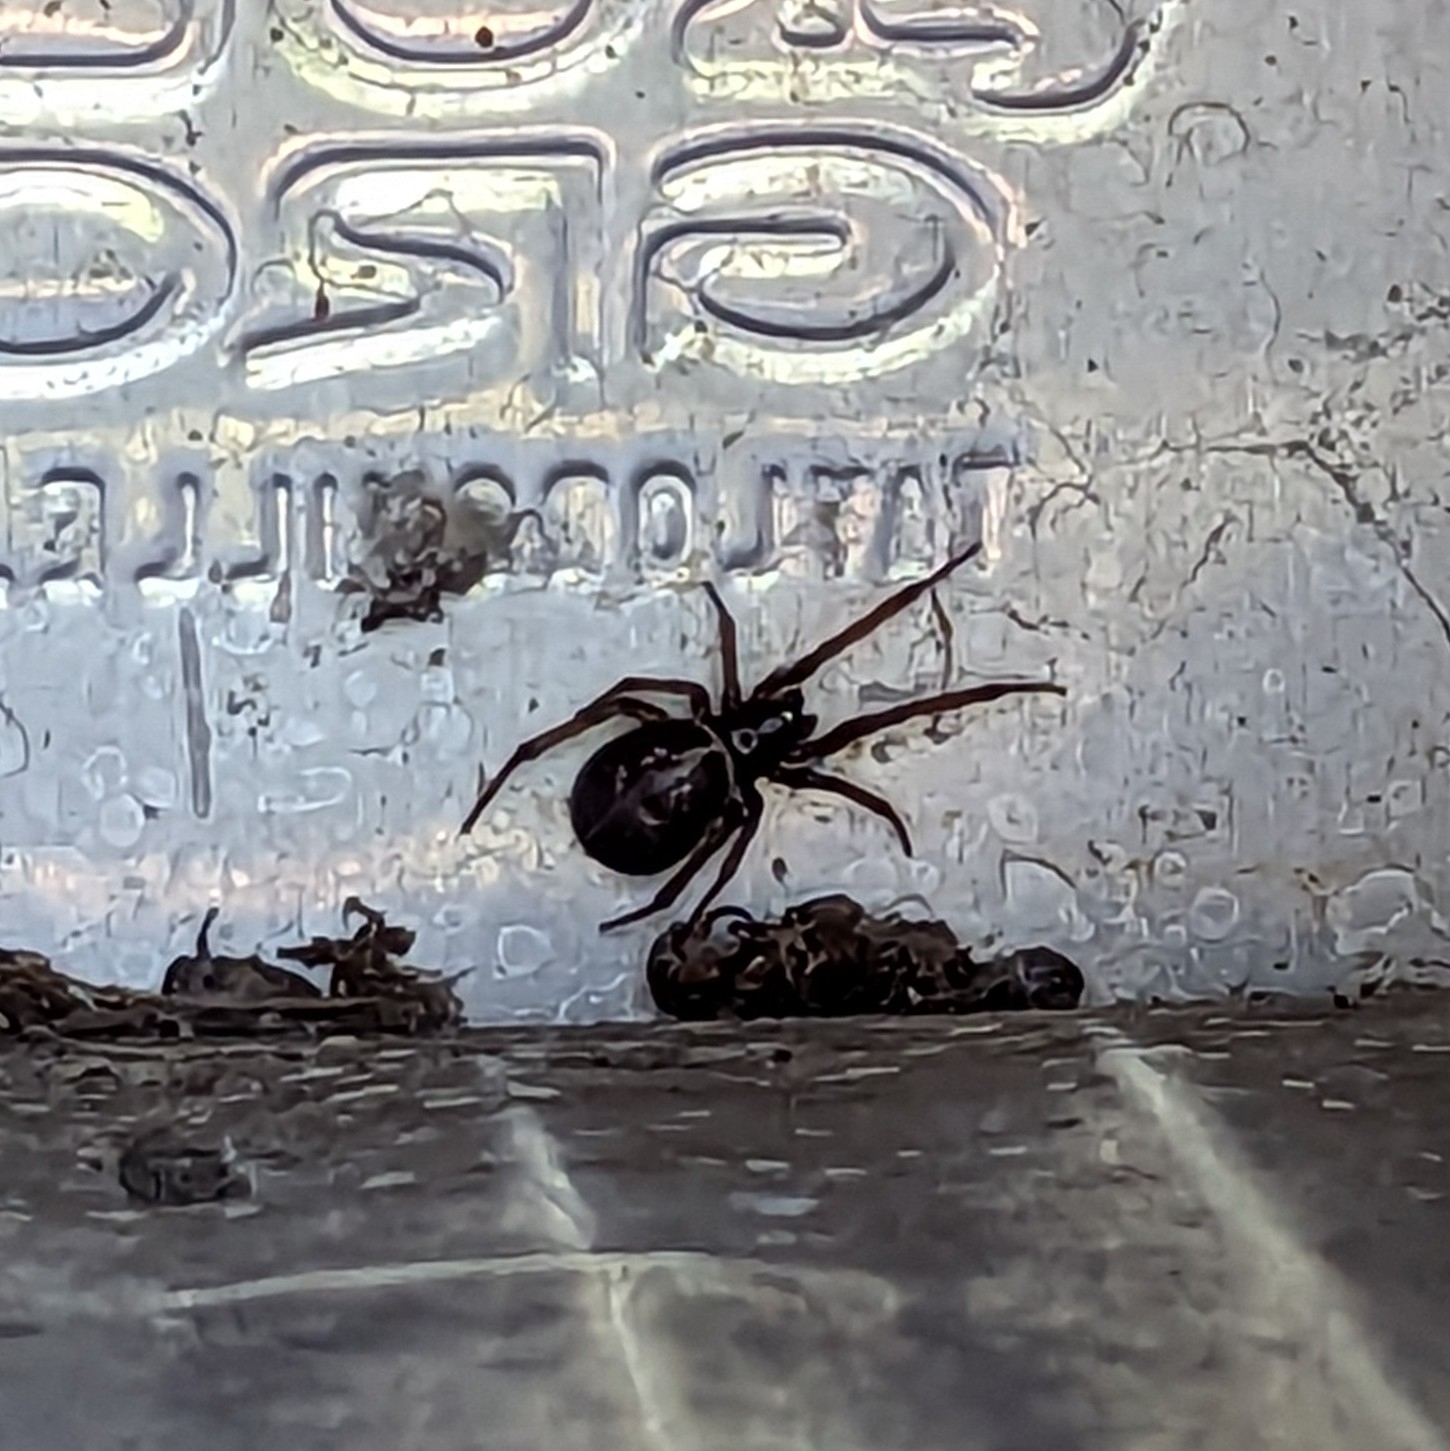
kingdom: Animalia
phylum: Arthropoda
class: Arachnida
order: Araneae
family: Theridiidae
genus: Steatoda
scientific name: Steatoda nobilis
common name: Cobweb weaver
